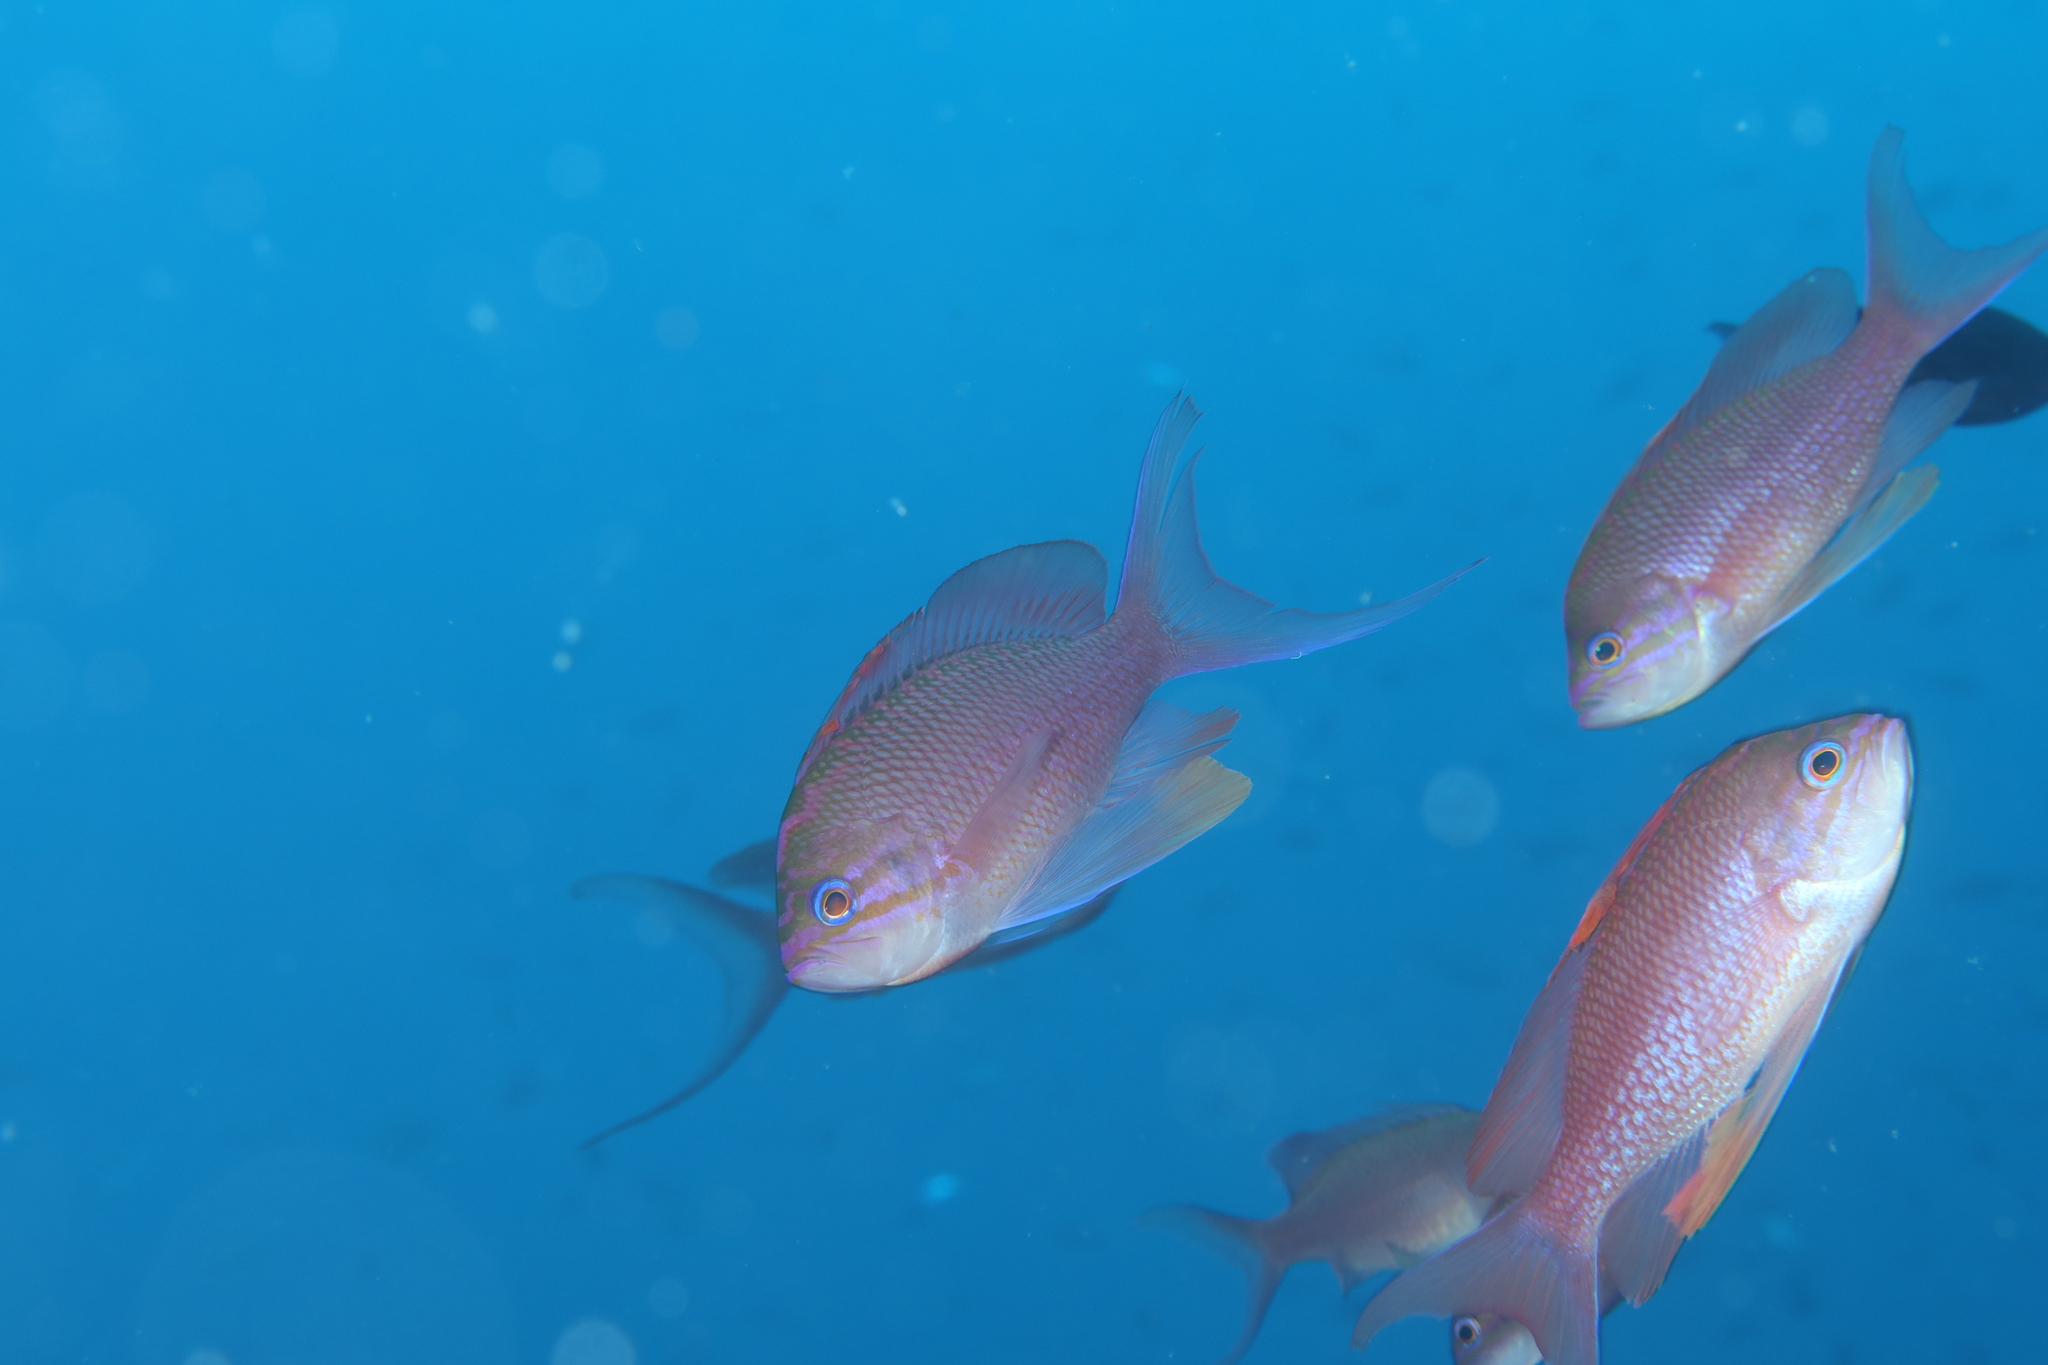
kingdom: Animalia
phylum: Chordata
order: Perciformes
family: Serranidae
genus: Anthias
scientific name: Anthias anthias
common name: Swallowtail seaperch
